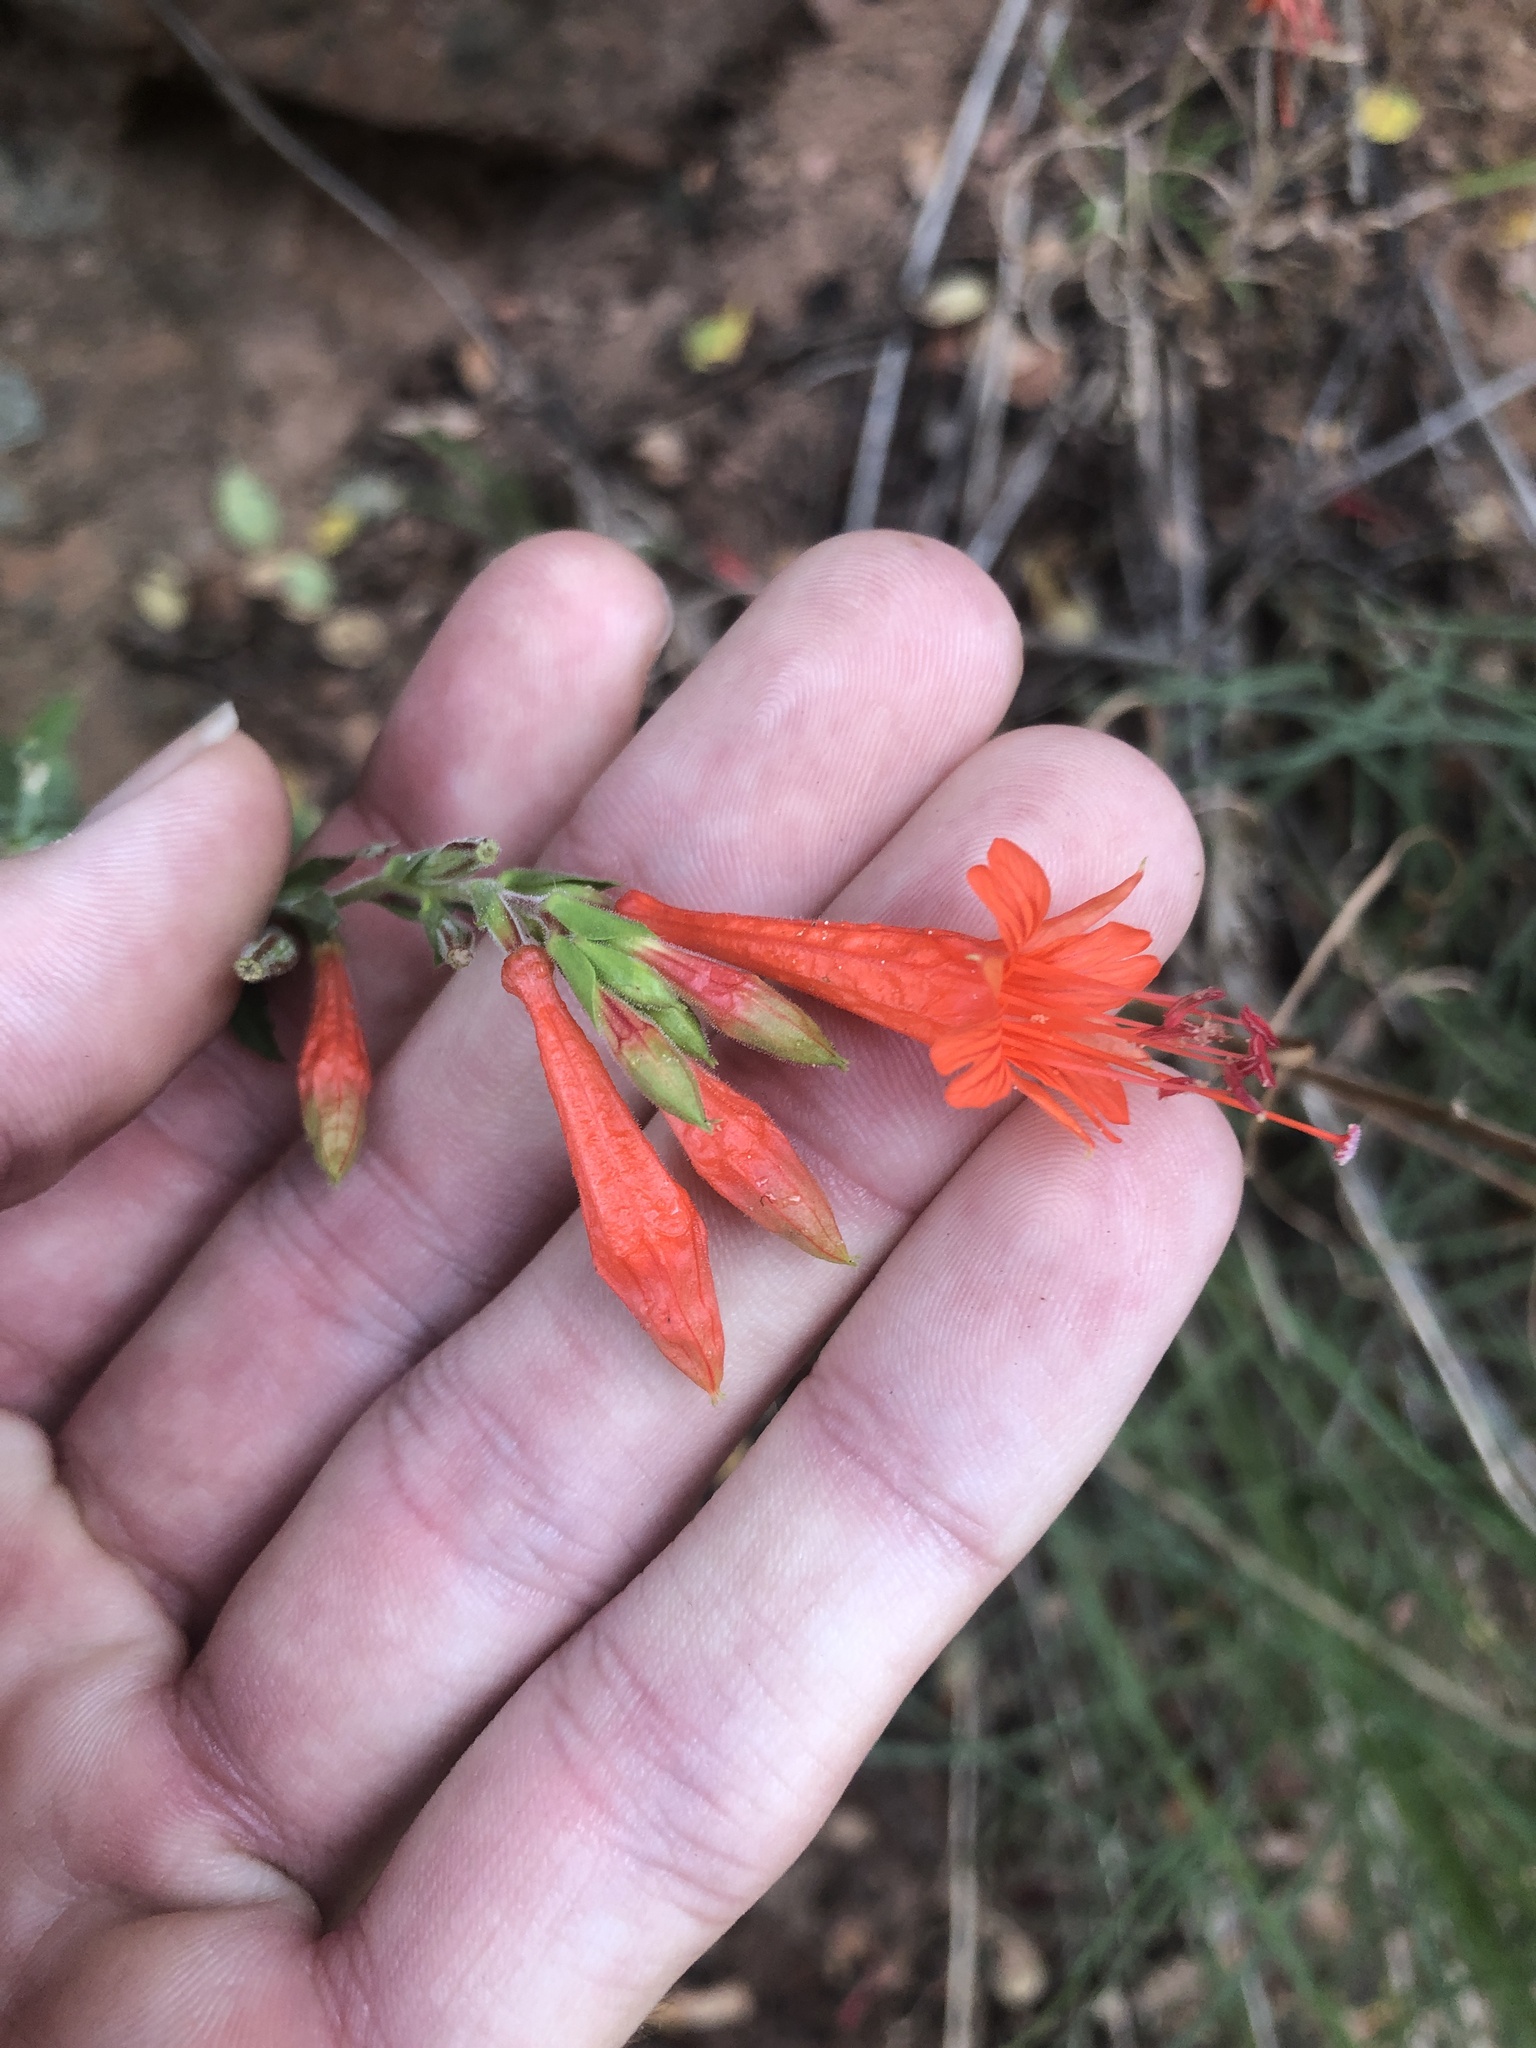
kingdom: Plantae
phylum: Tracheophyta
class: Magnoliopsida
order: Myrtales
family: Onagraceae
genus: Epilobium
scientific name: Epilobium canum
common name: California-fuchsia
